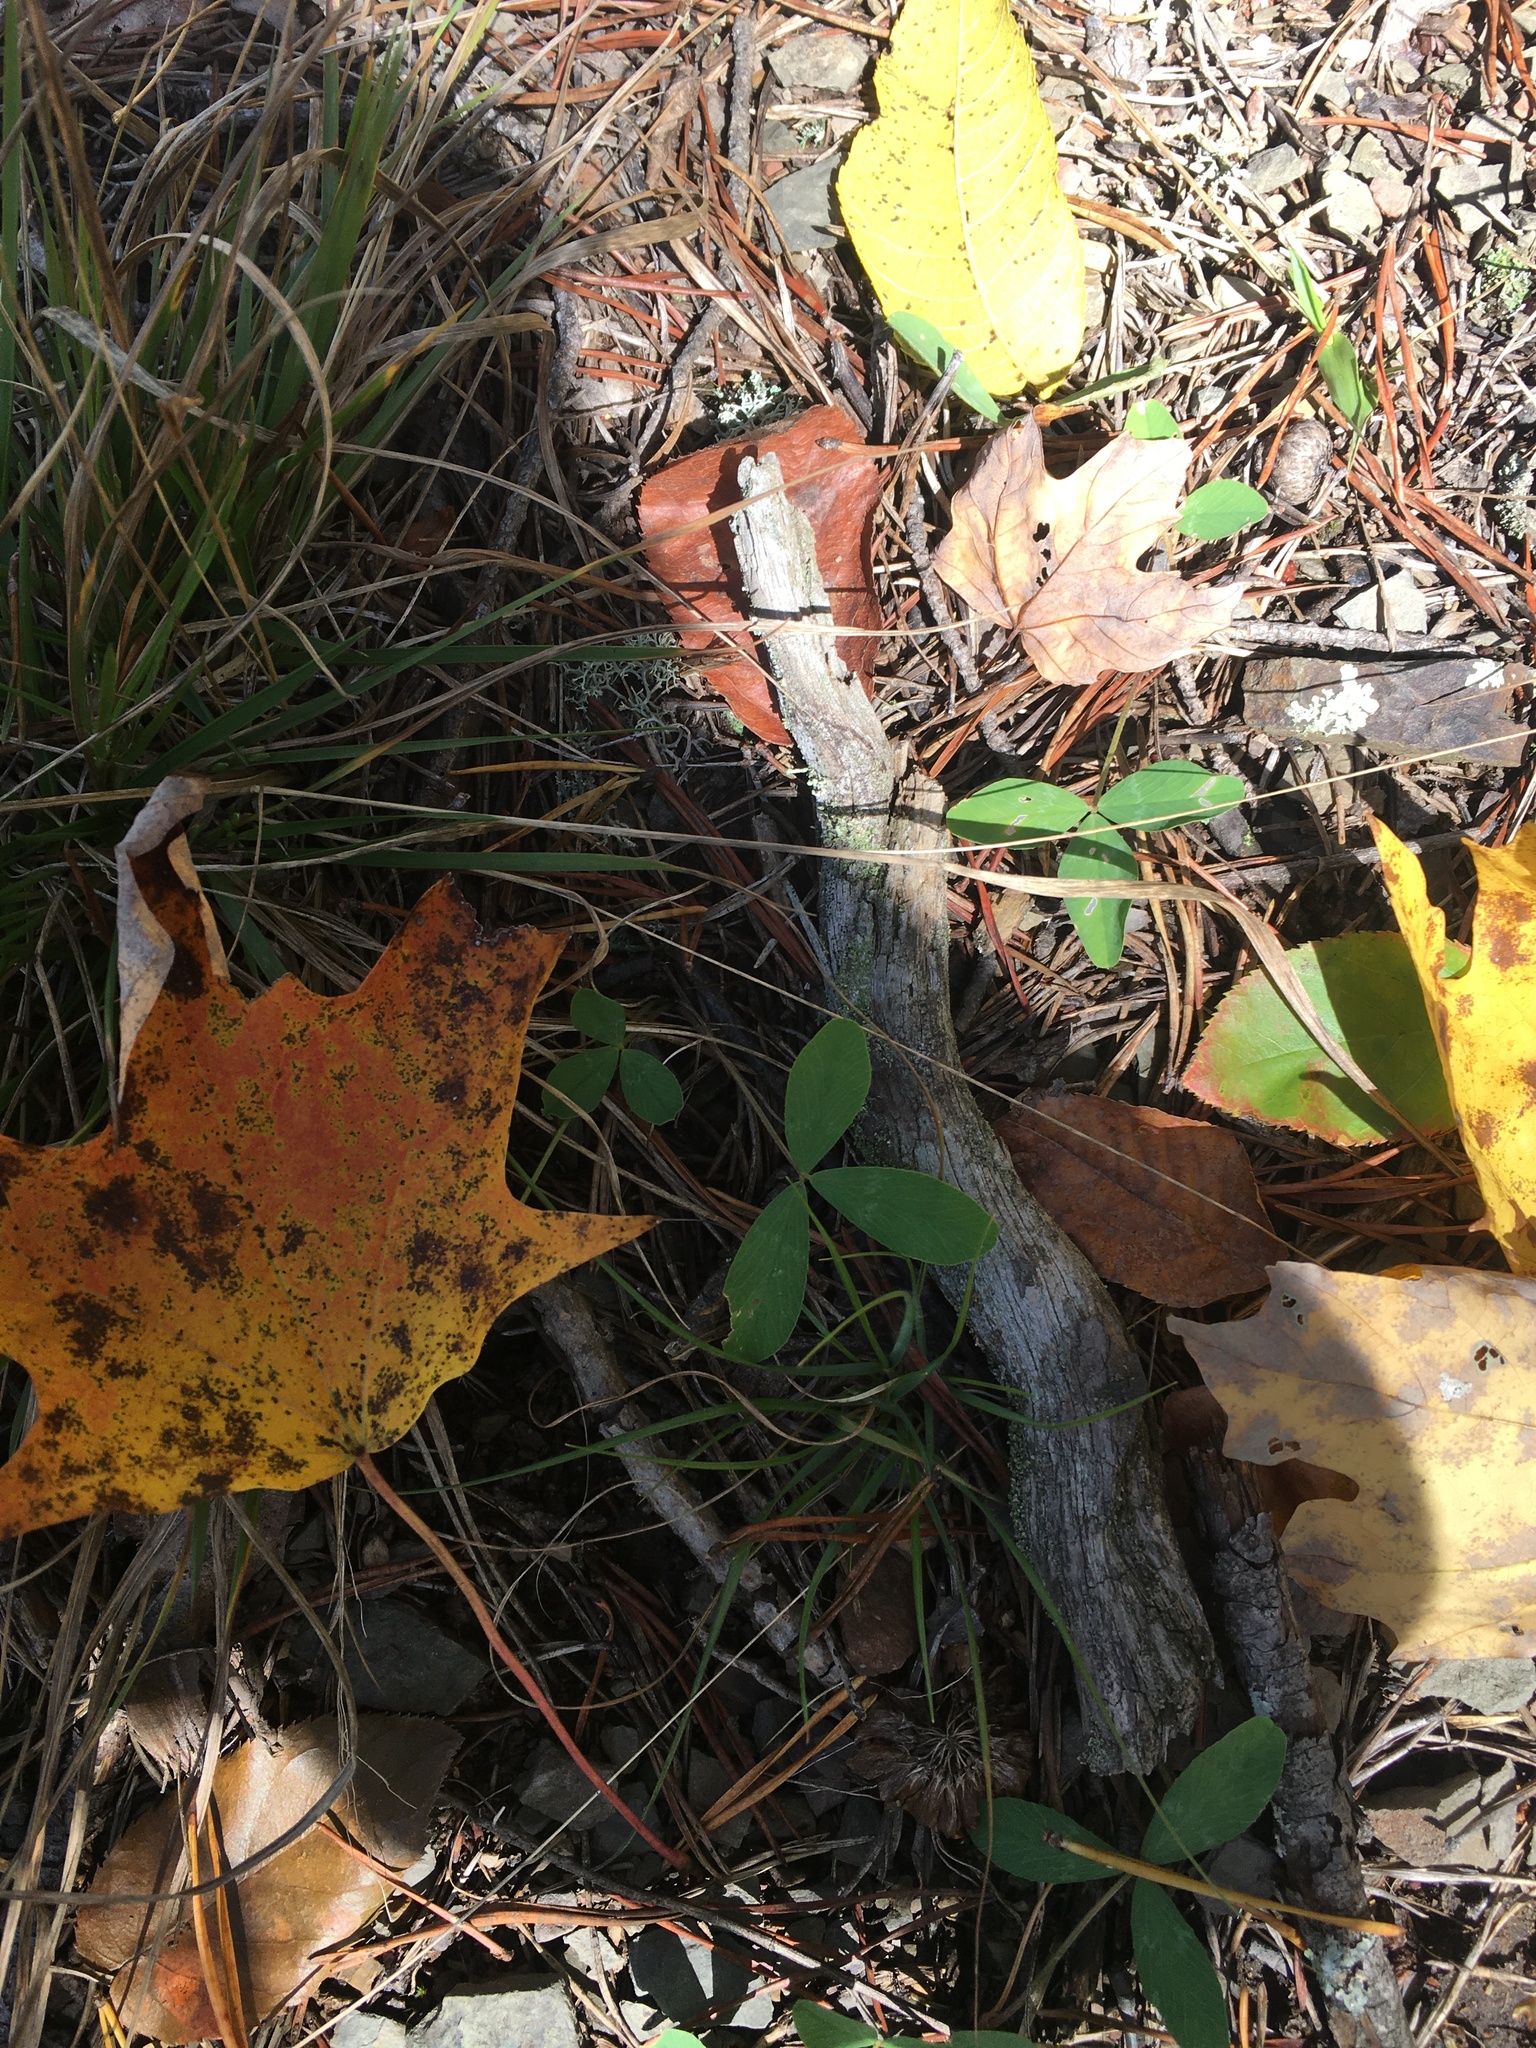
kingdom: Plantae
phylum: Tracheophyta
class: Magnoliopsida
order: Fabales
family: Fabaceae
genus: Trifolium
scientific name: Trifolium virginicum
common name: Kate's mountain clover
